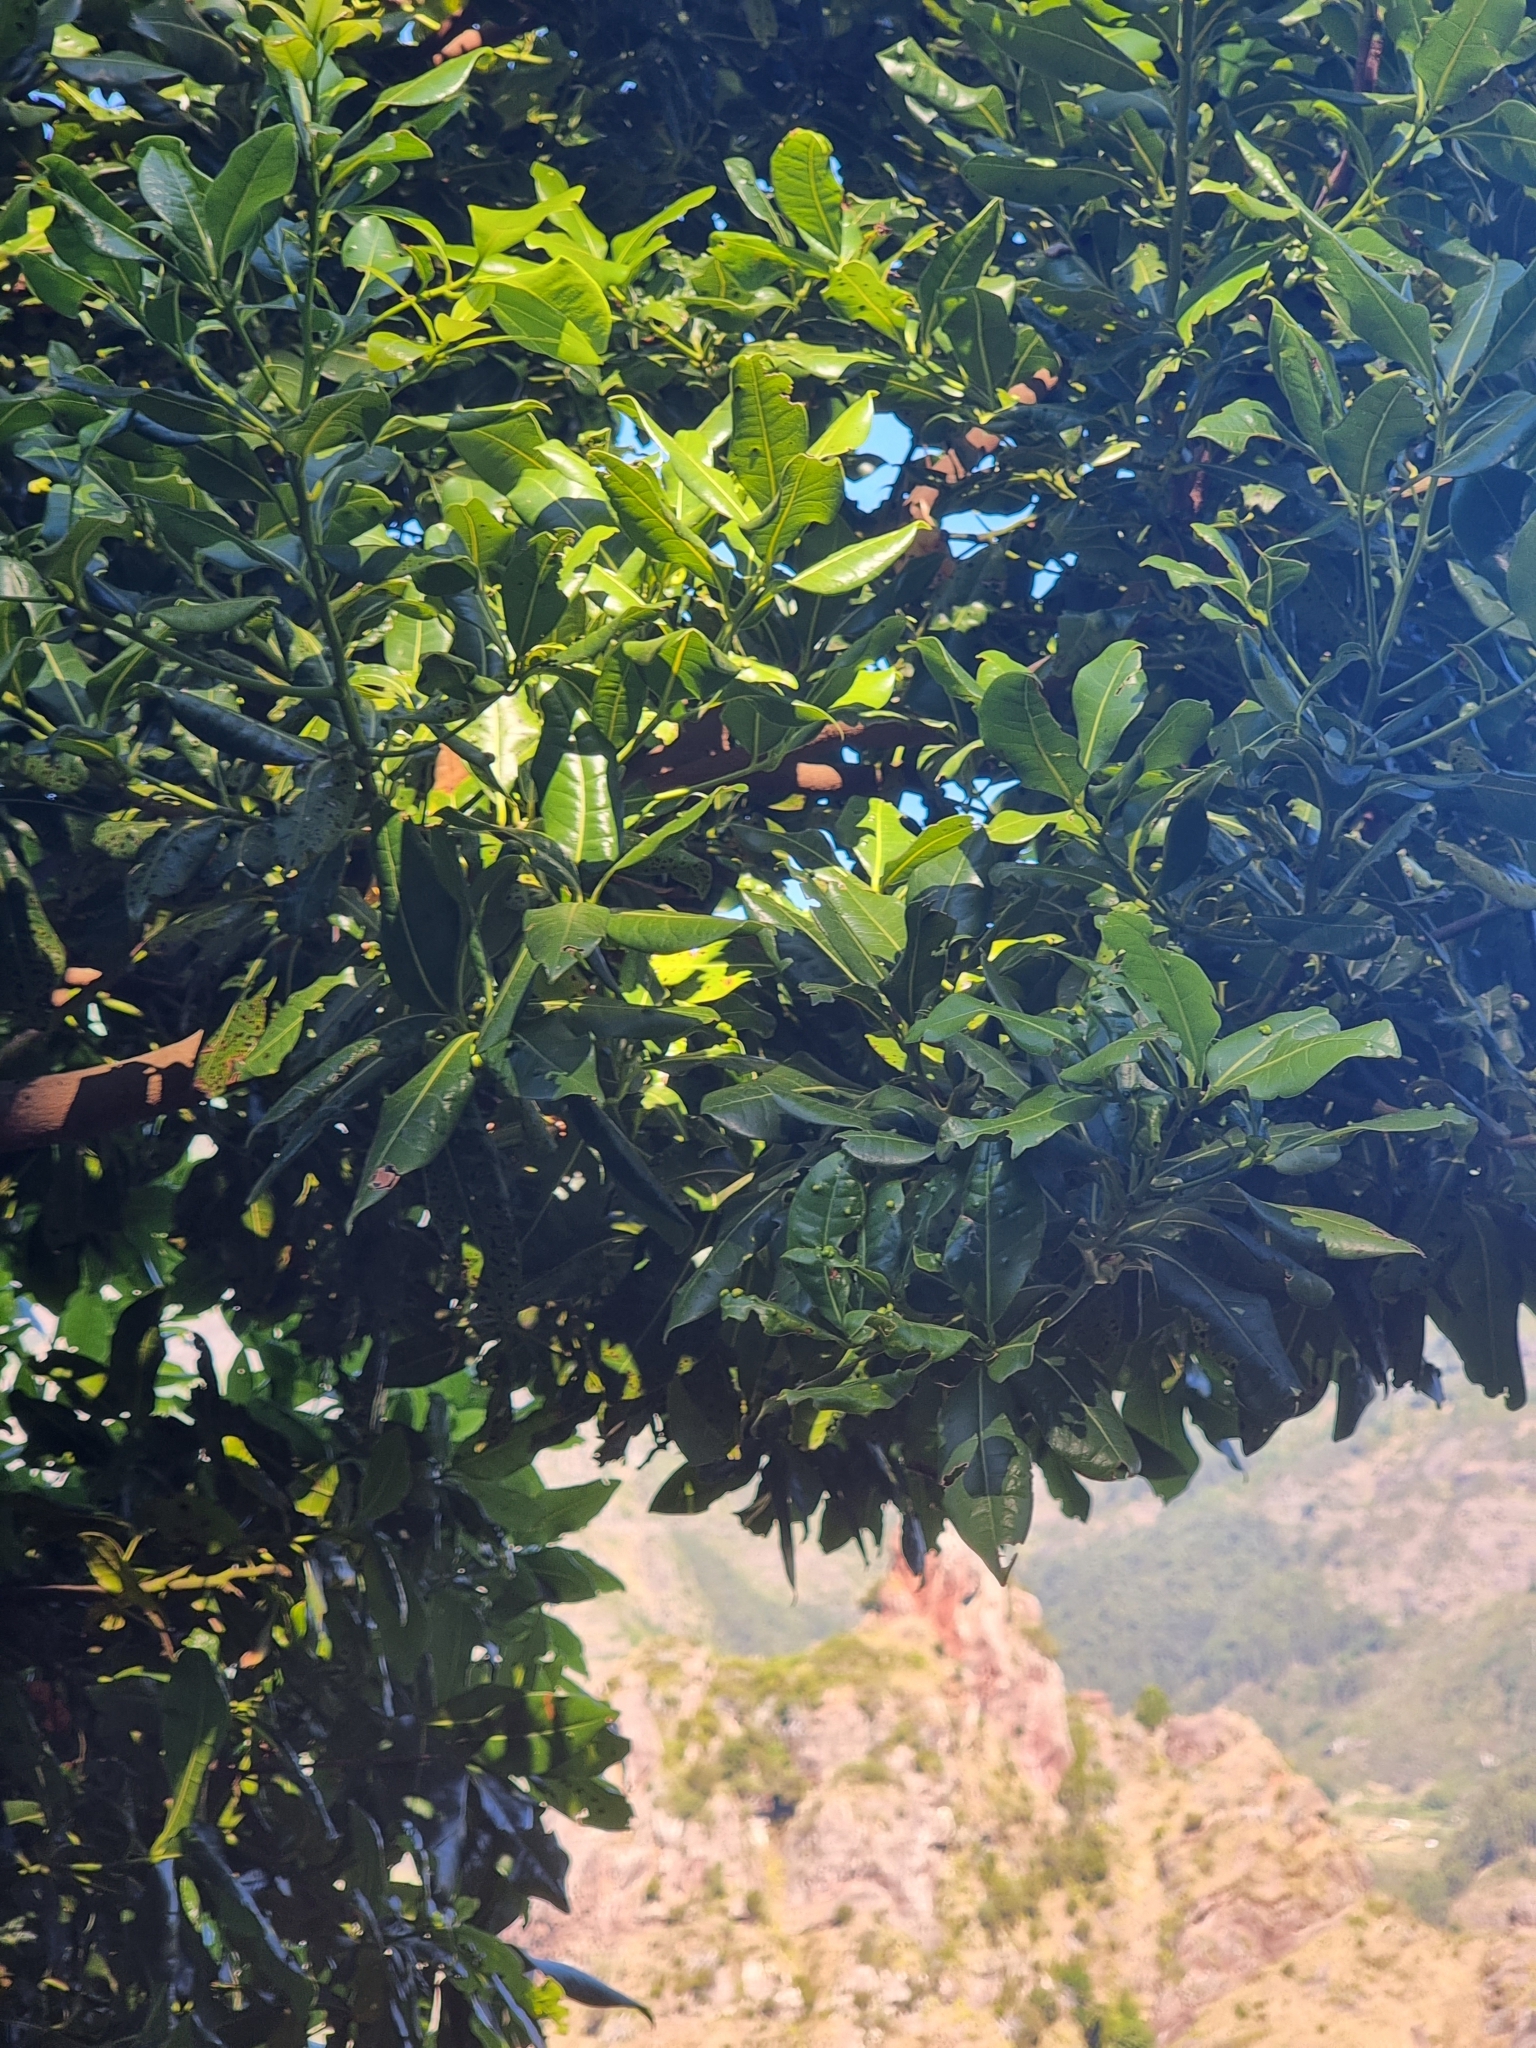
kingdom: Plantae
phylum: Tracheophyta
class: Magnoliopsida
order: Laurales
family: Lauraceae
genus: Apollonias
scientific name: Apollonias barbujana
